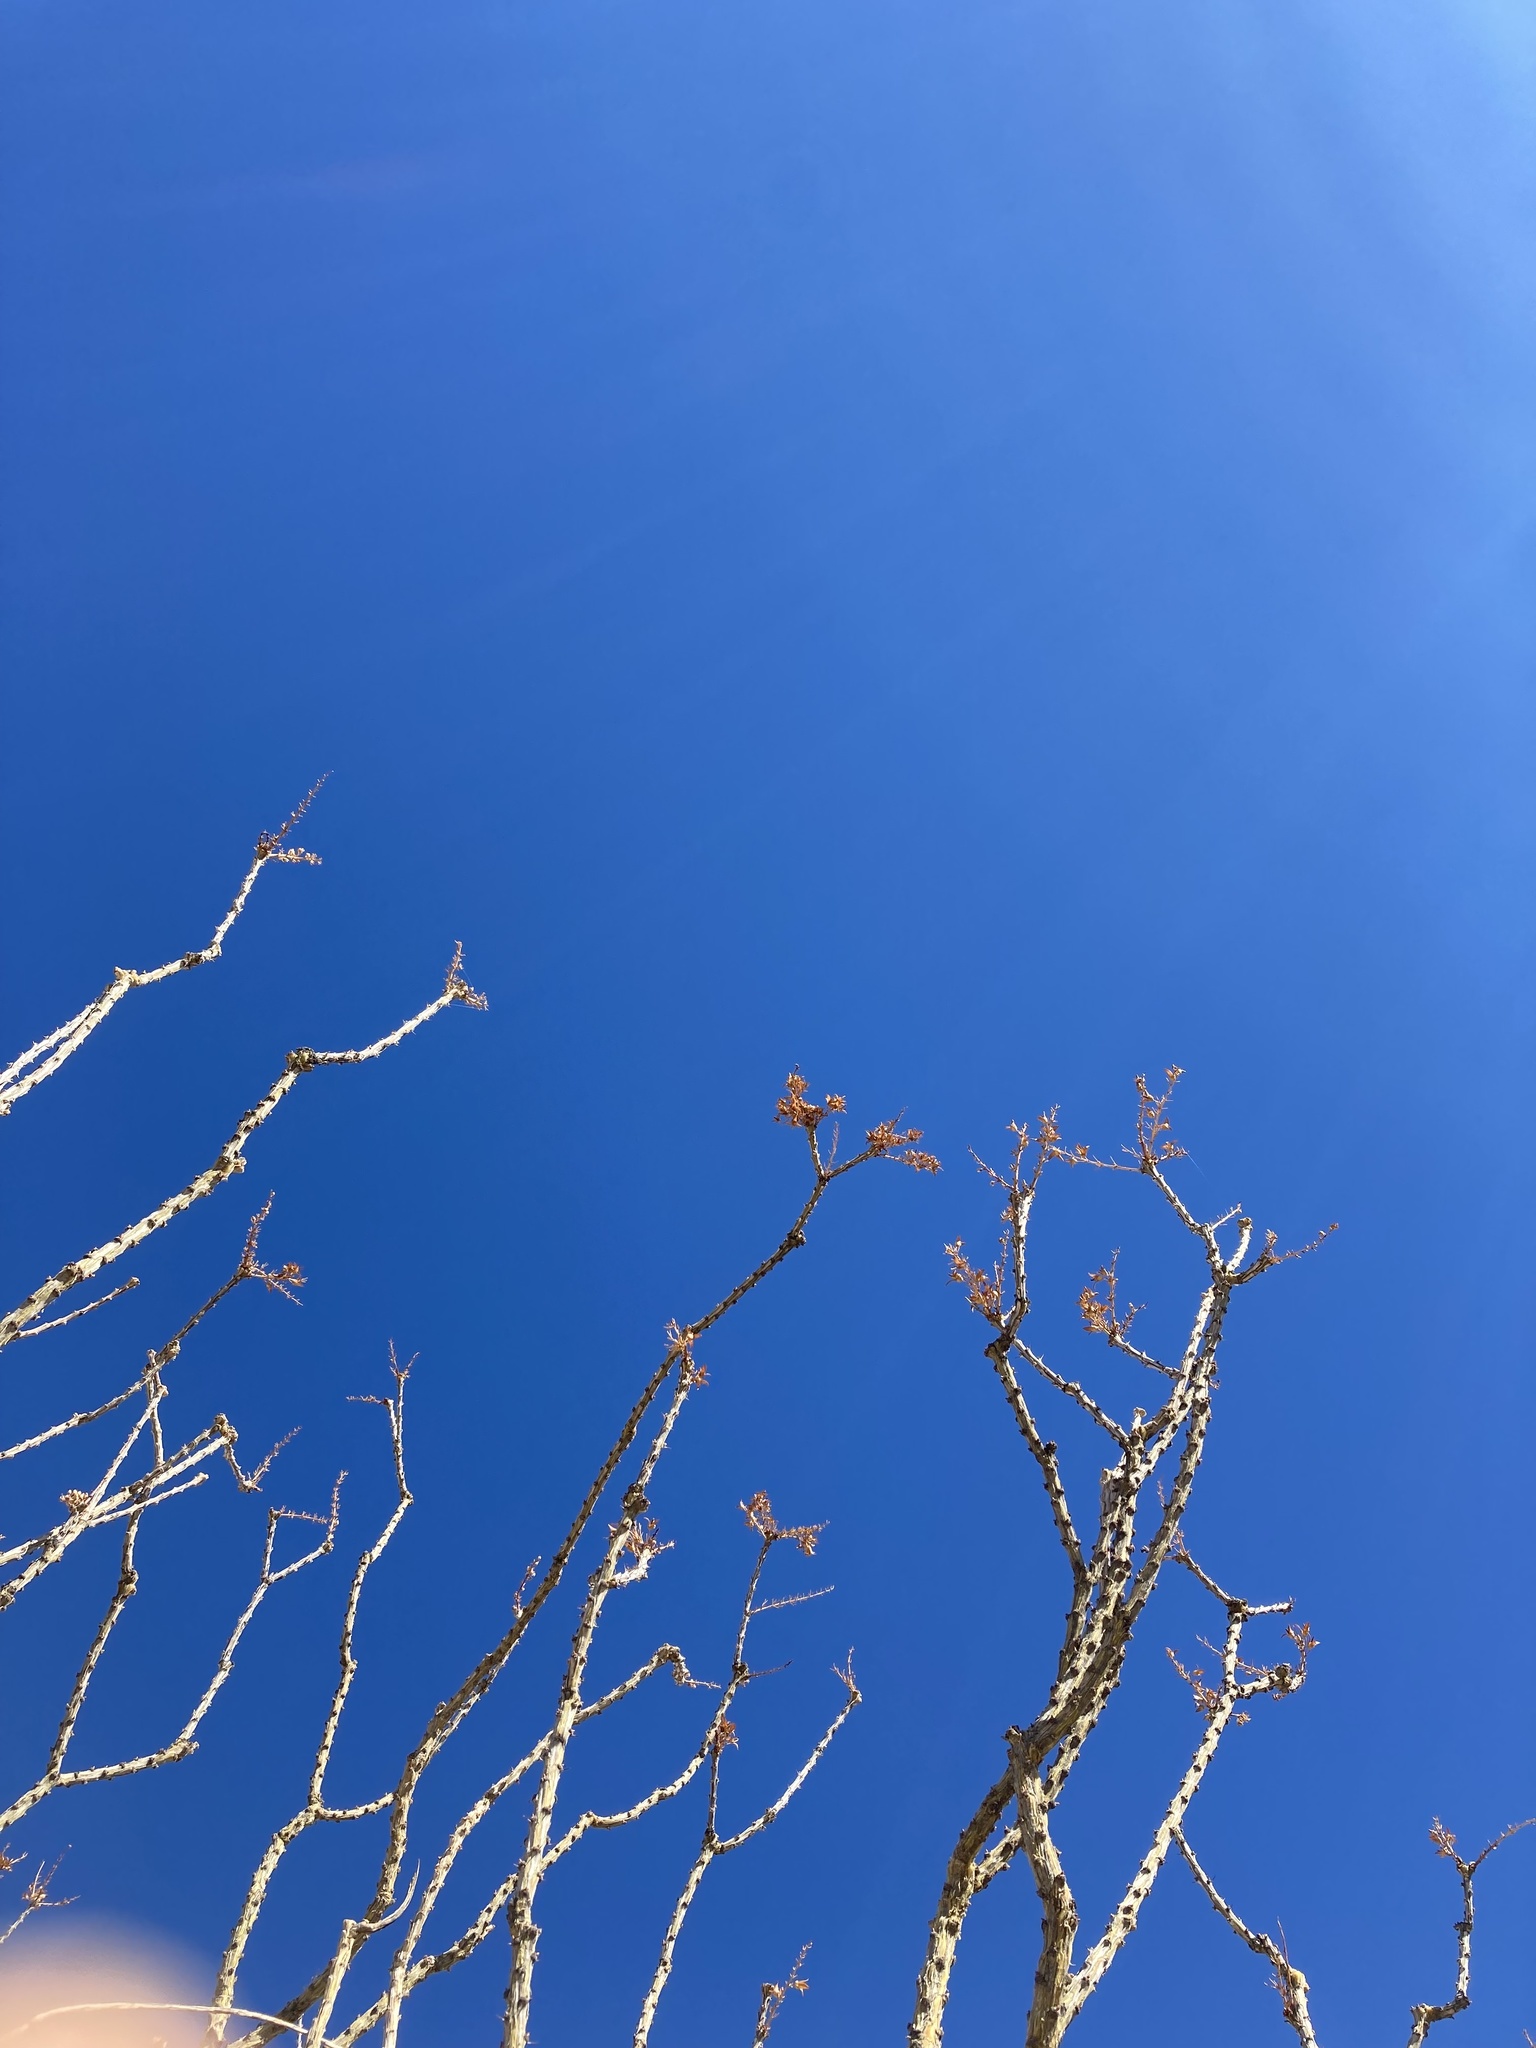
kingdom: Plantae
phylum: Tracheophyta
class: Magnoliopsida
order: Ericales
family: Fouquieriaceae
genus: Fouquieria
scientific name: Fouquieria splendens
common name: Vine-cactus
